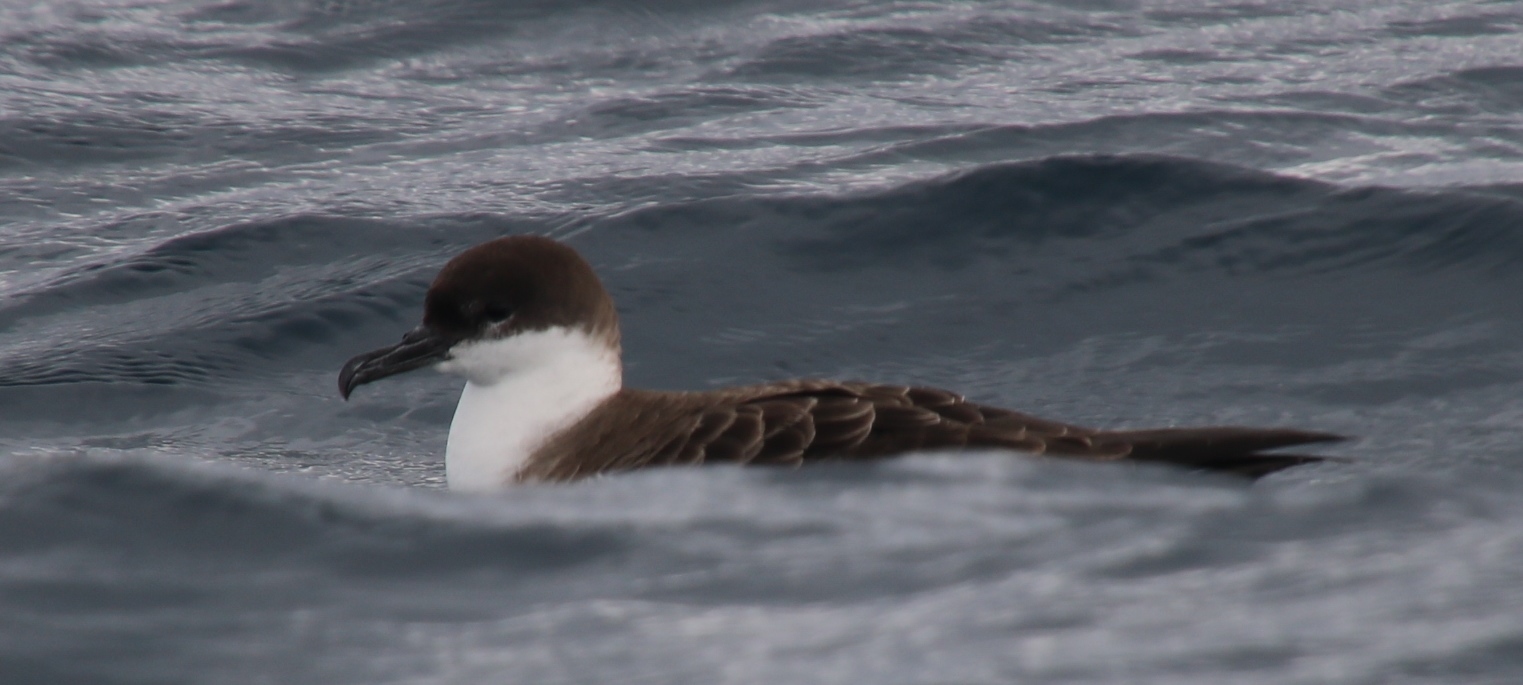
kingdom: Animalia
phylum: Chordata
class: Aves
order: Procellariiformes
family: Procellariidae
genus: Puffinus
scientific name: Puffinus gravis
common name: Great shearwater
